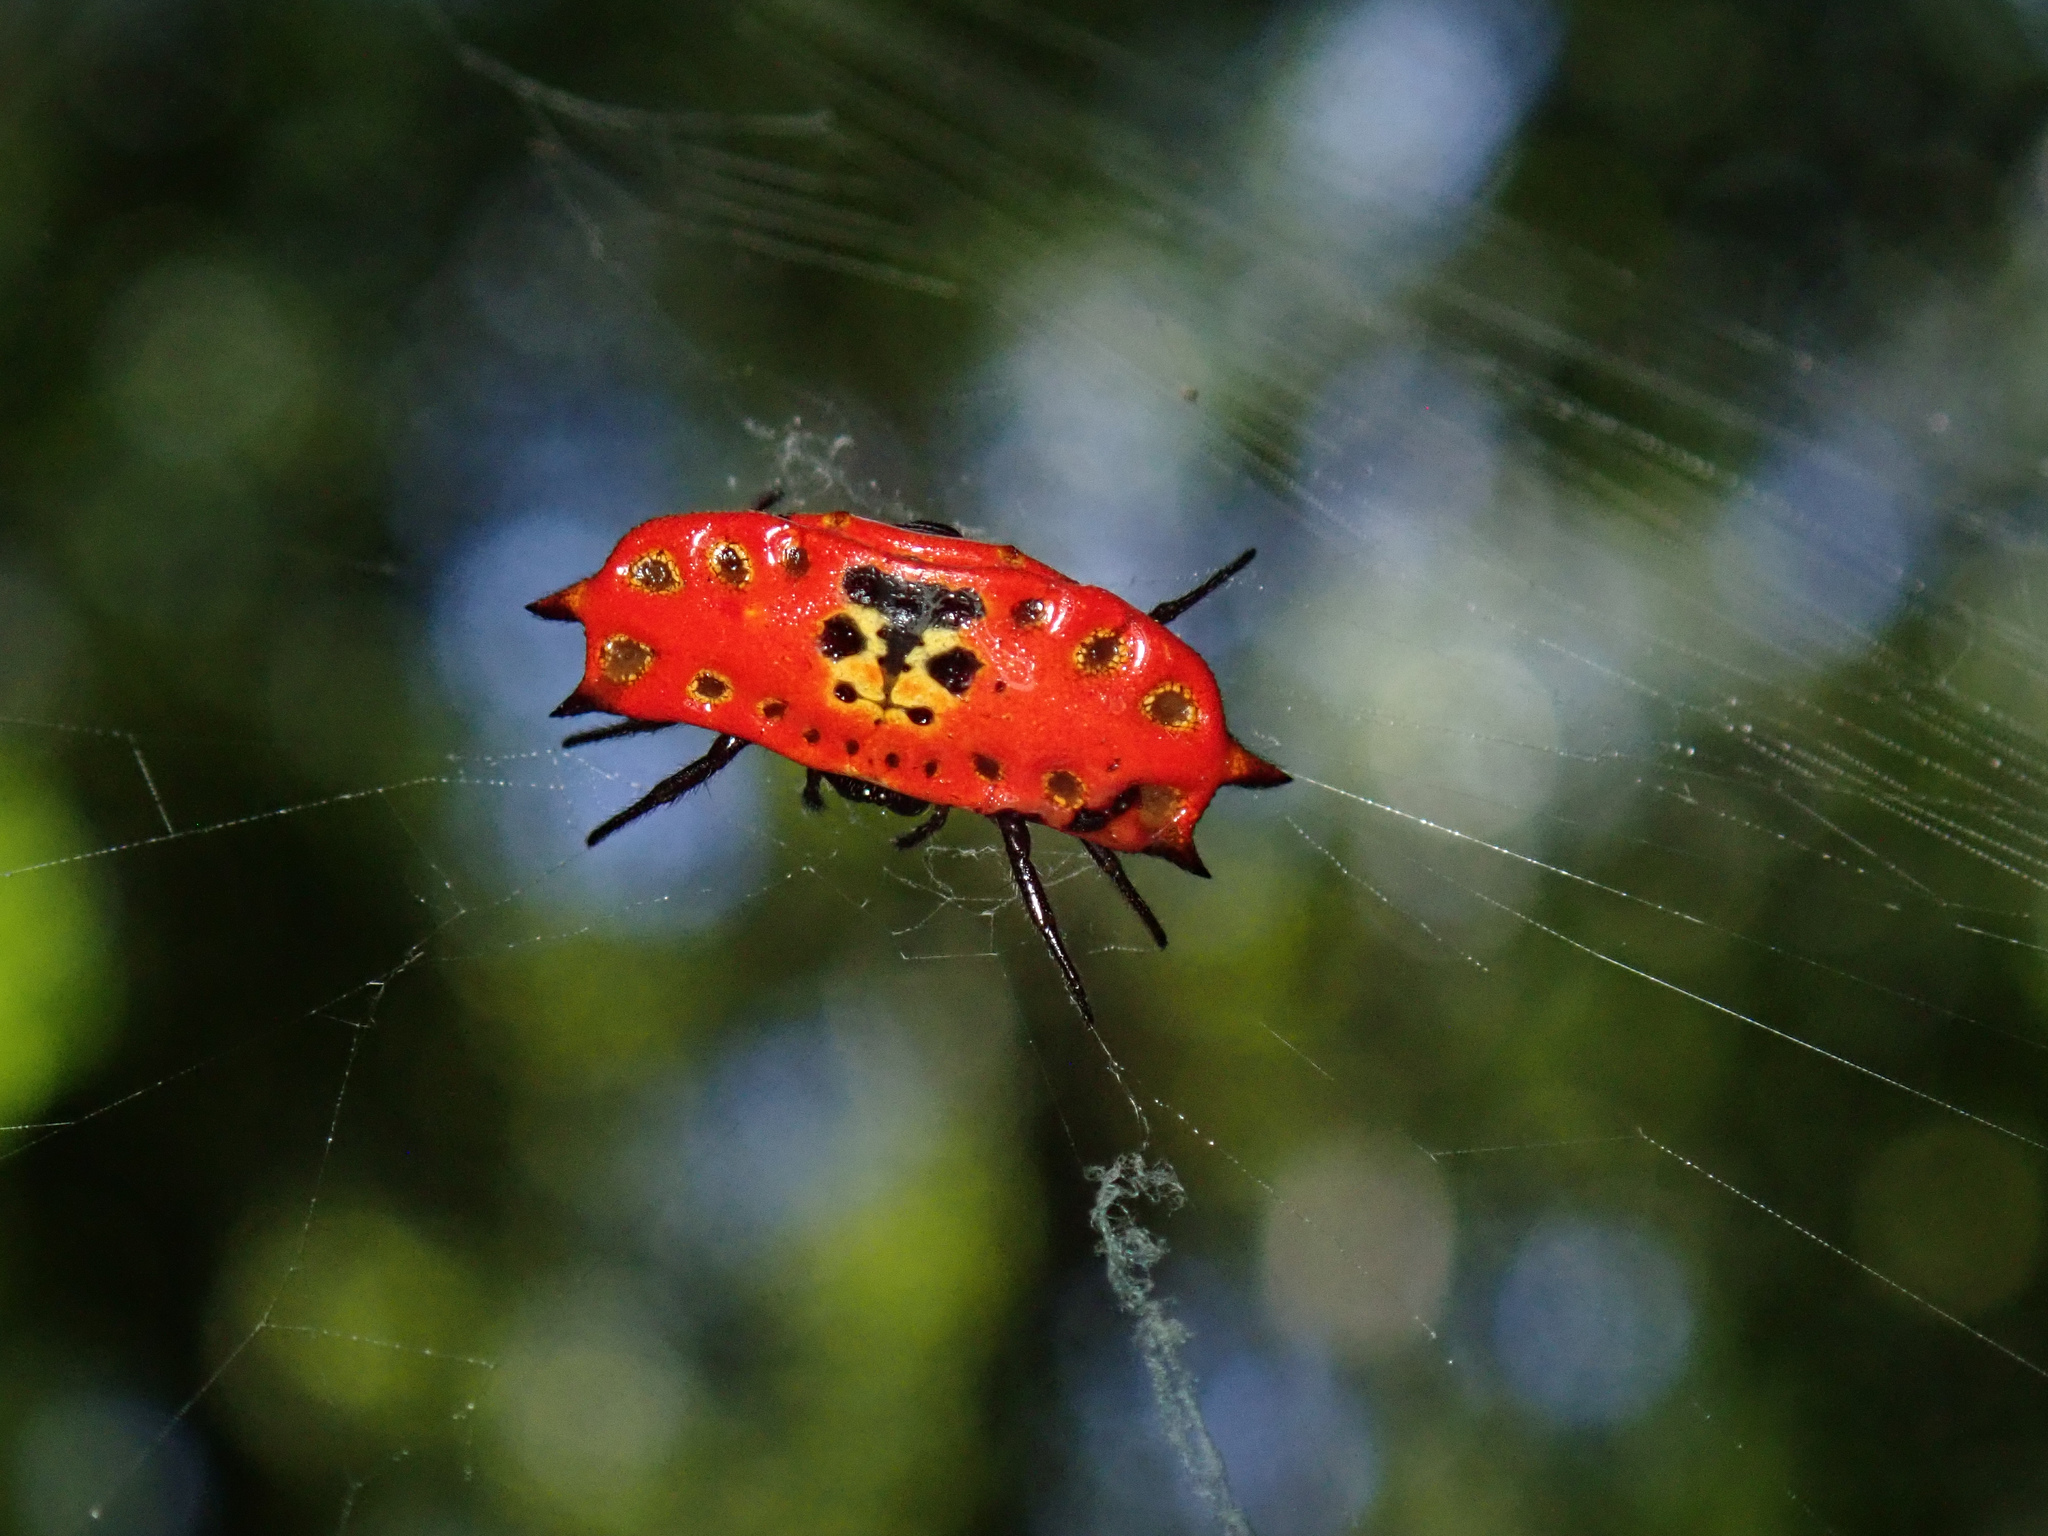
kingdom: Animalia
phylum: Arthropoda
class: Arachnida
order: Araneae
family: Araneidae
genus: Gasteracantha
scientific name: Gasteracantha quadrispinosa
